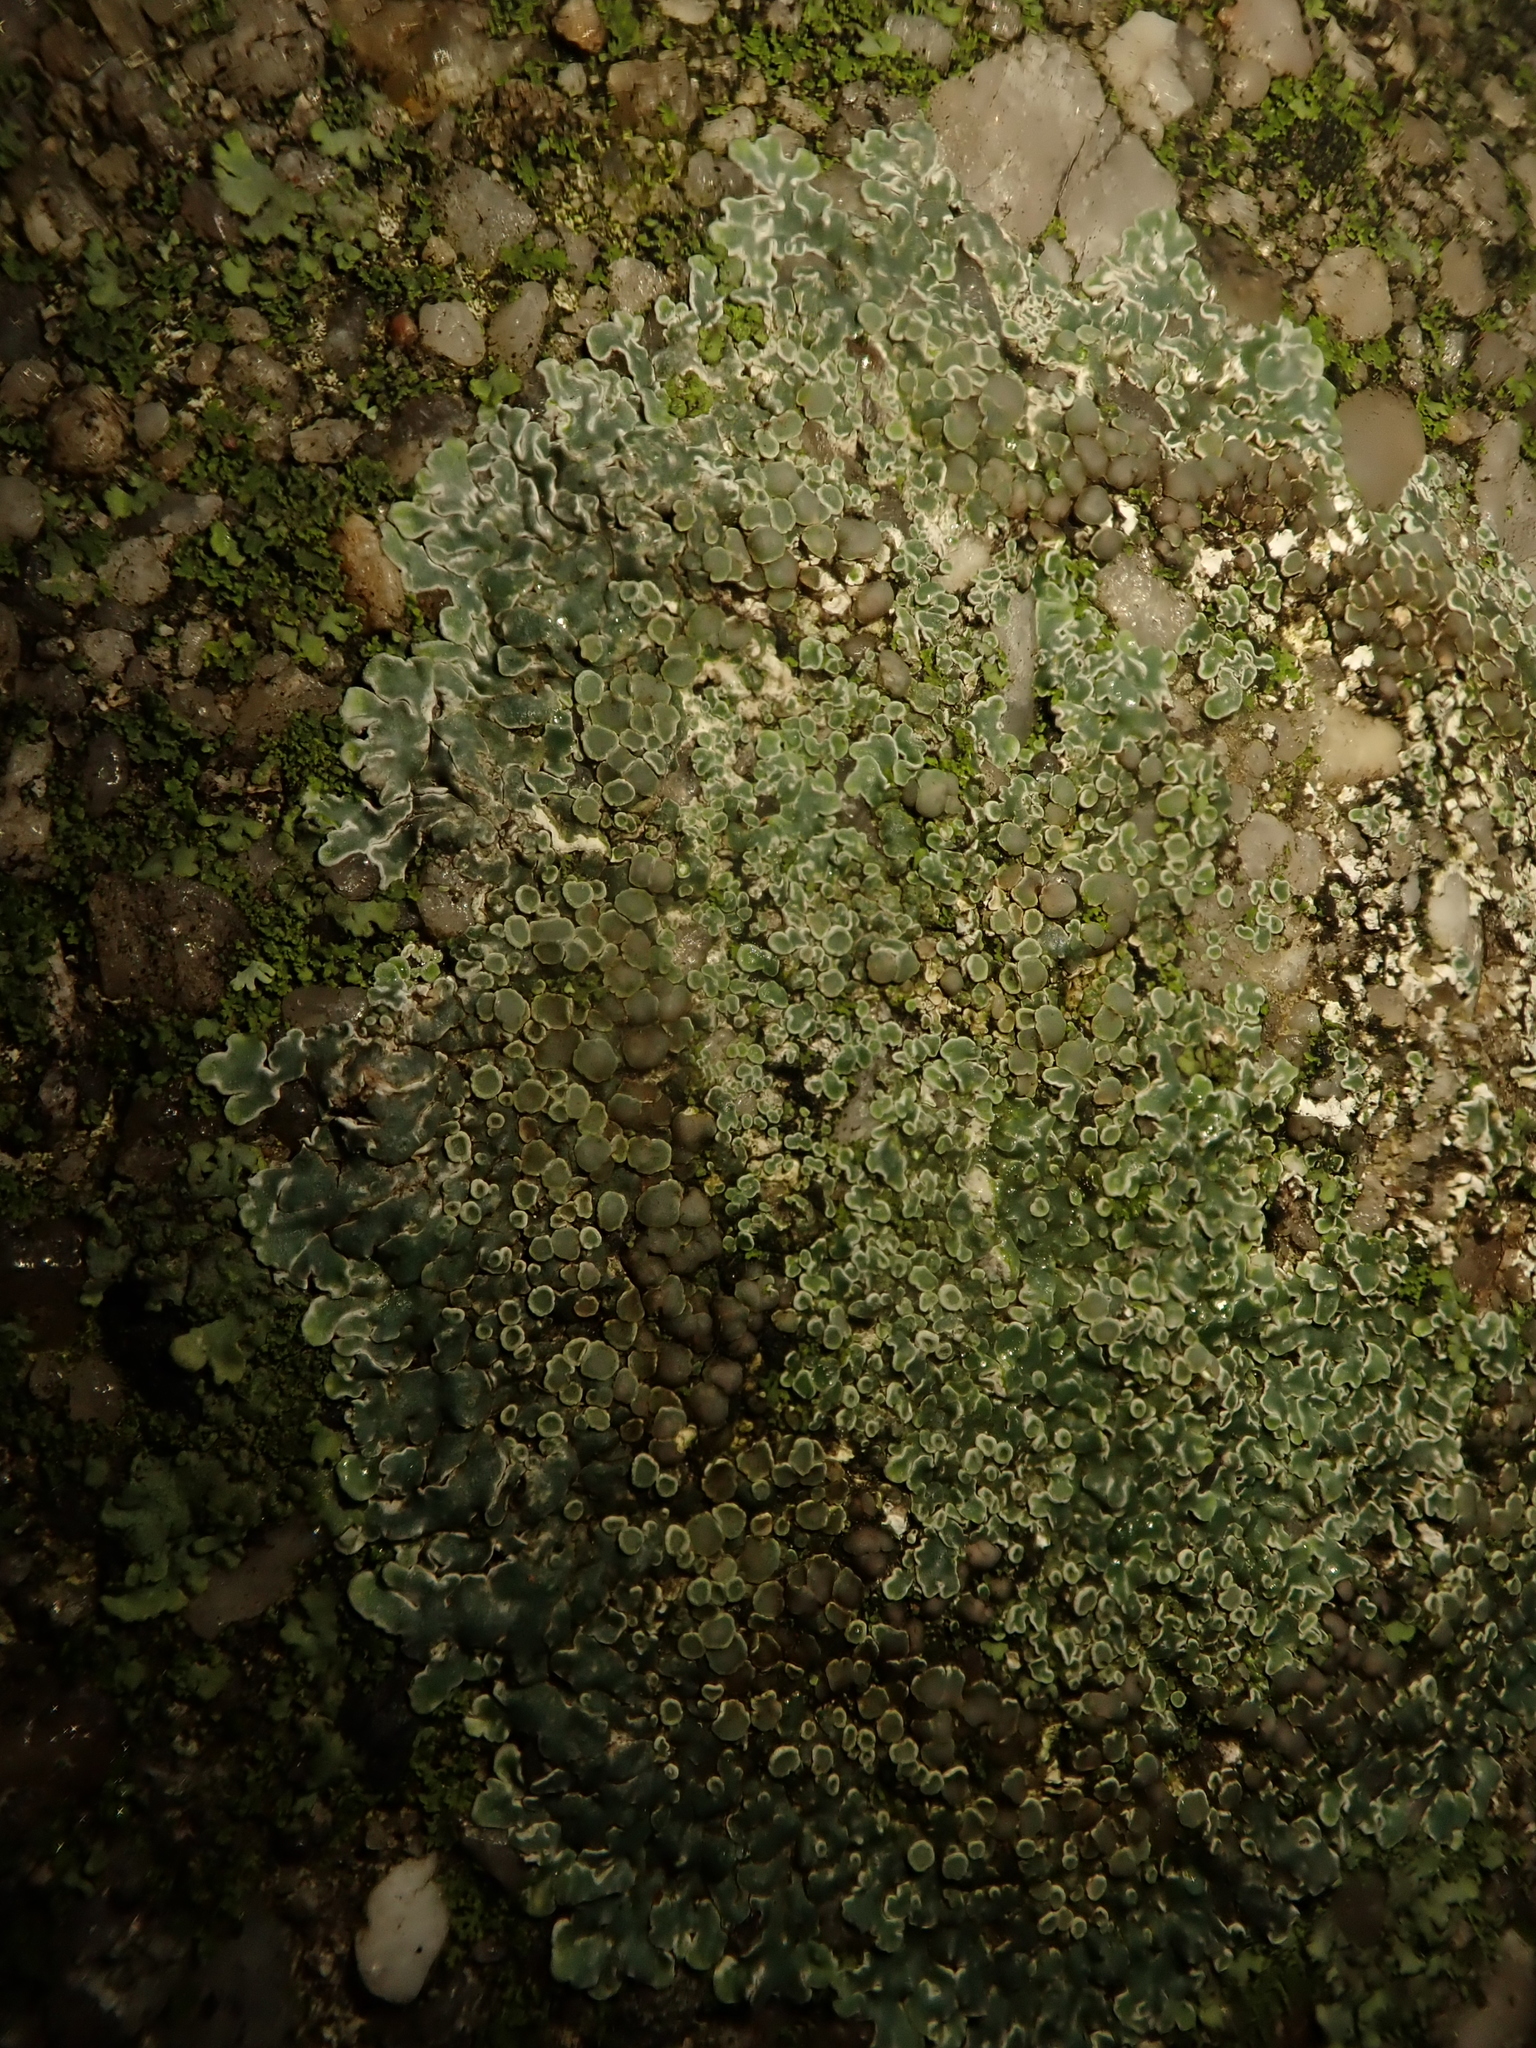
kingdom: Fungi
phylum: Ascomycota
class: Lecanoromycetes
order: Lecanorales
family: Lecanoraceae
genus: Protoparmeliopsis
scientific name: Protoparmeliopsis muralis
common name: Stonewall rim lichen
